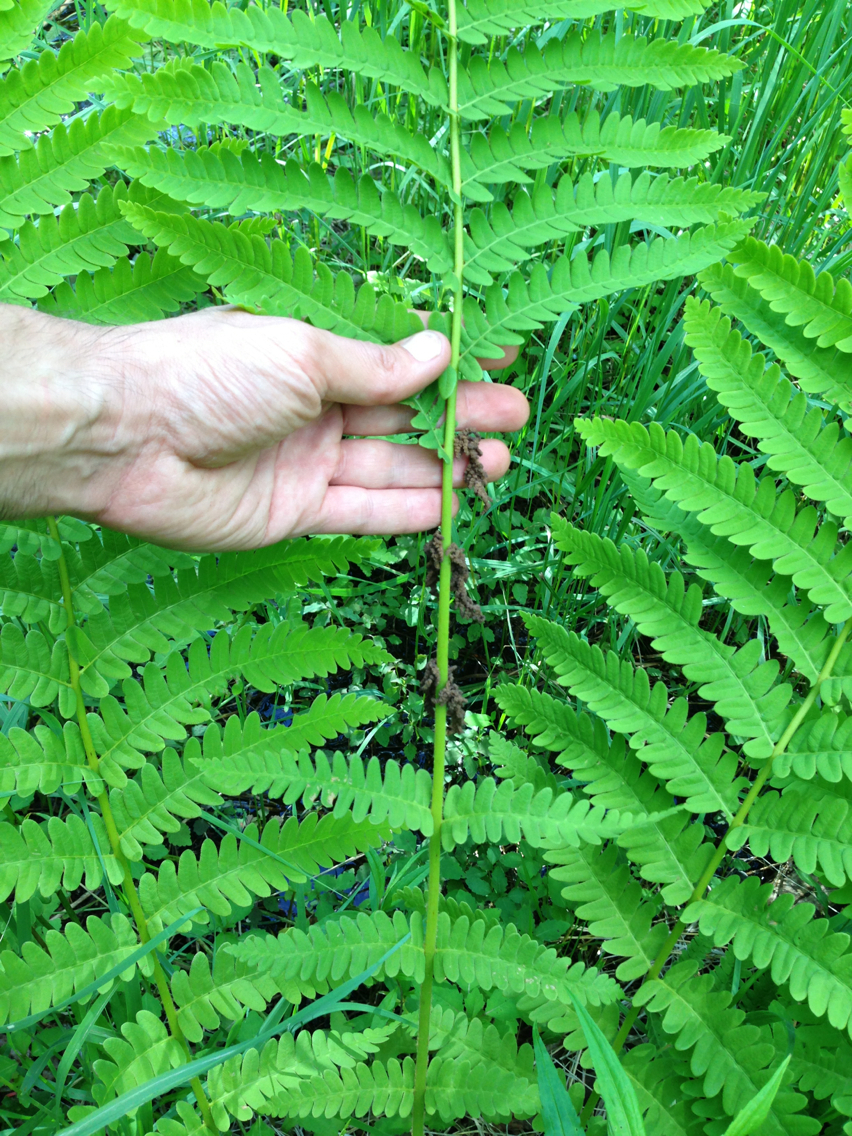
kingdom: Plantae
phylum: Tracheophyta
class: Polypodiopsida
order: Osmundales
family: Osmundaceae
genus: Claytosmunda
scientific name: Claytosmunda claytoniana
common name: Clayton's fern
